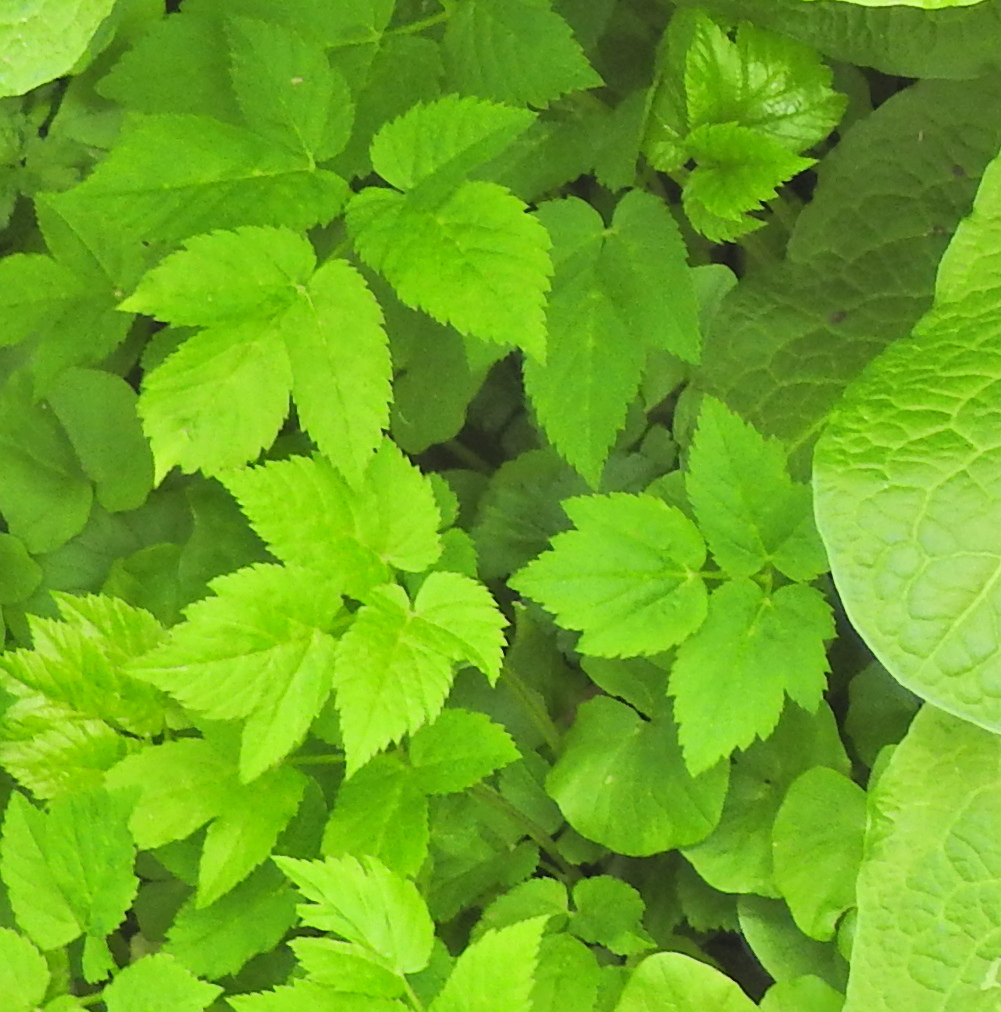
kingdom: Plantae
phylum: Tracheophyta
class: Magnoliopsida
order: Apiales
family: Apiaceae
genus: Aegopodium
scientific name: Aegopodium podagraria
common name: Ground-elder
